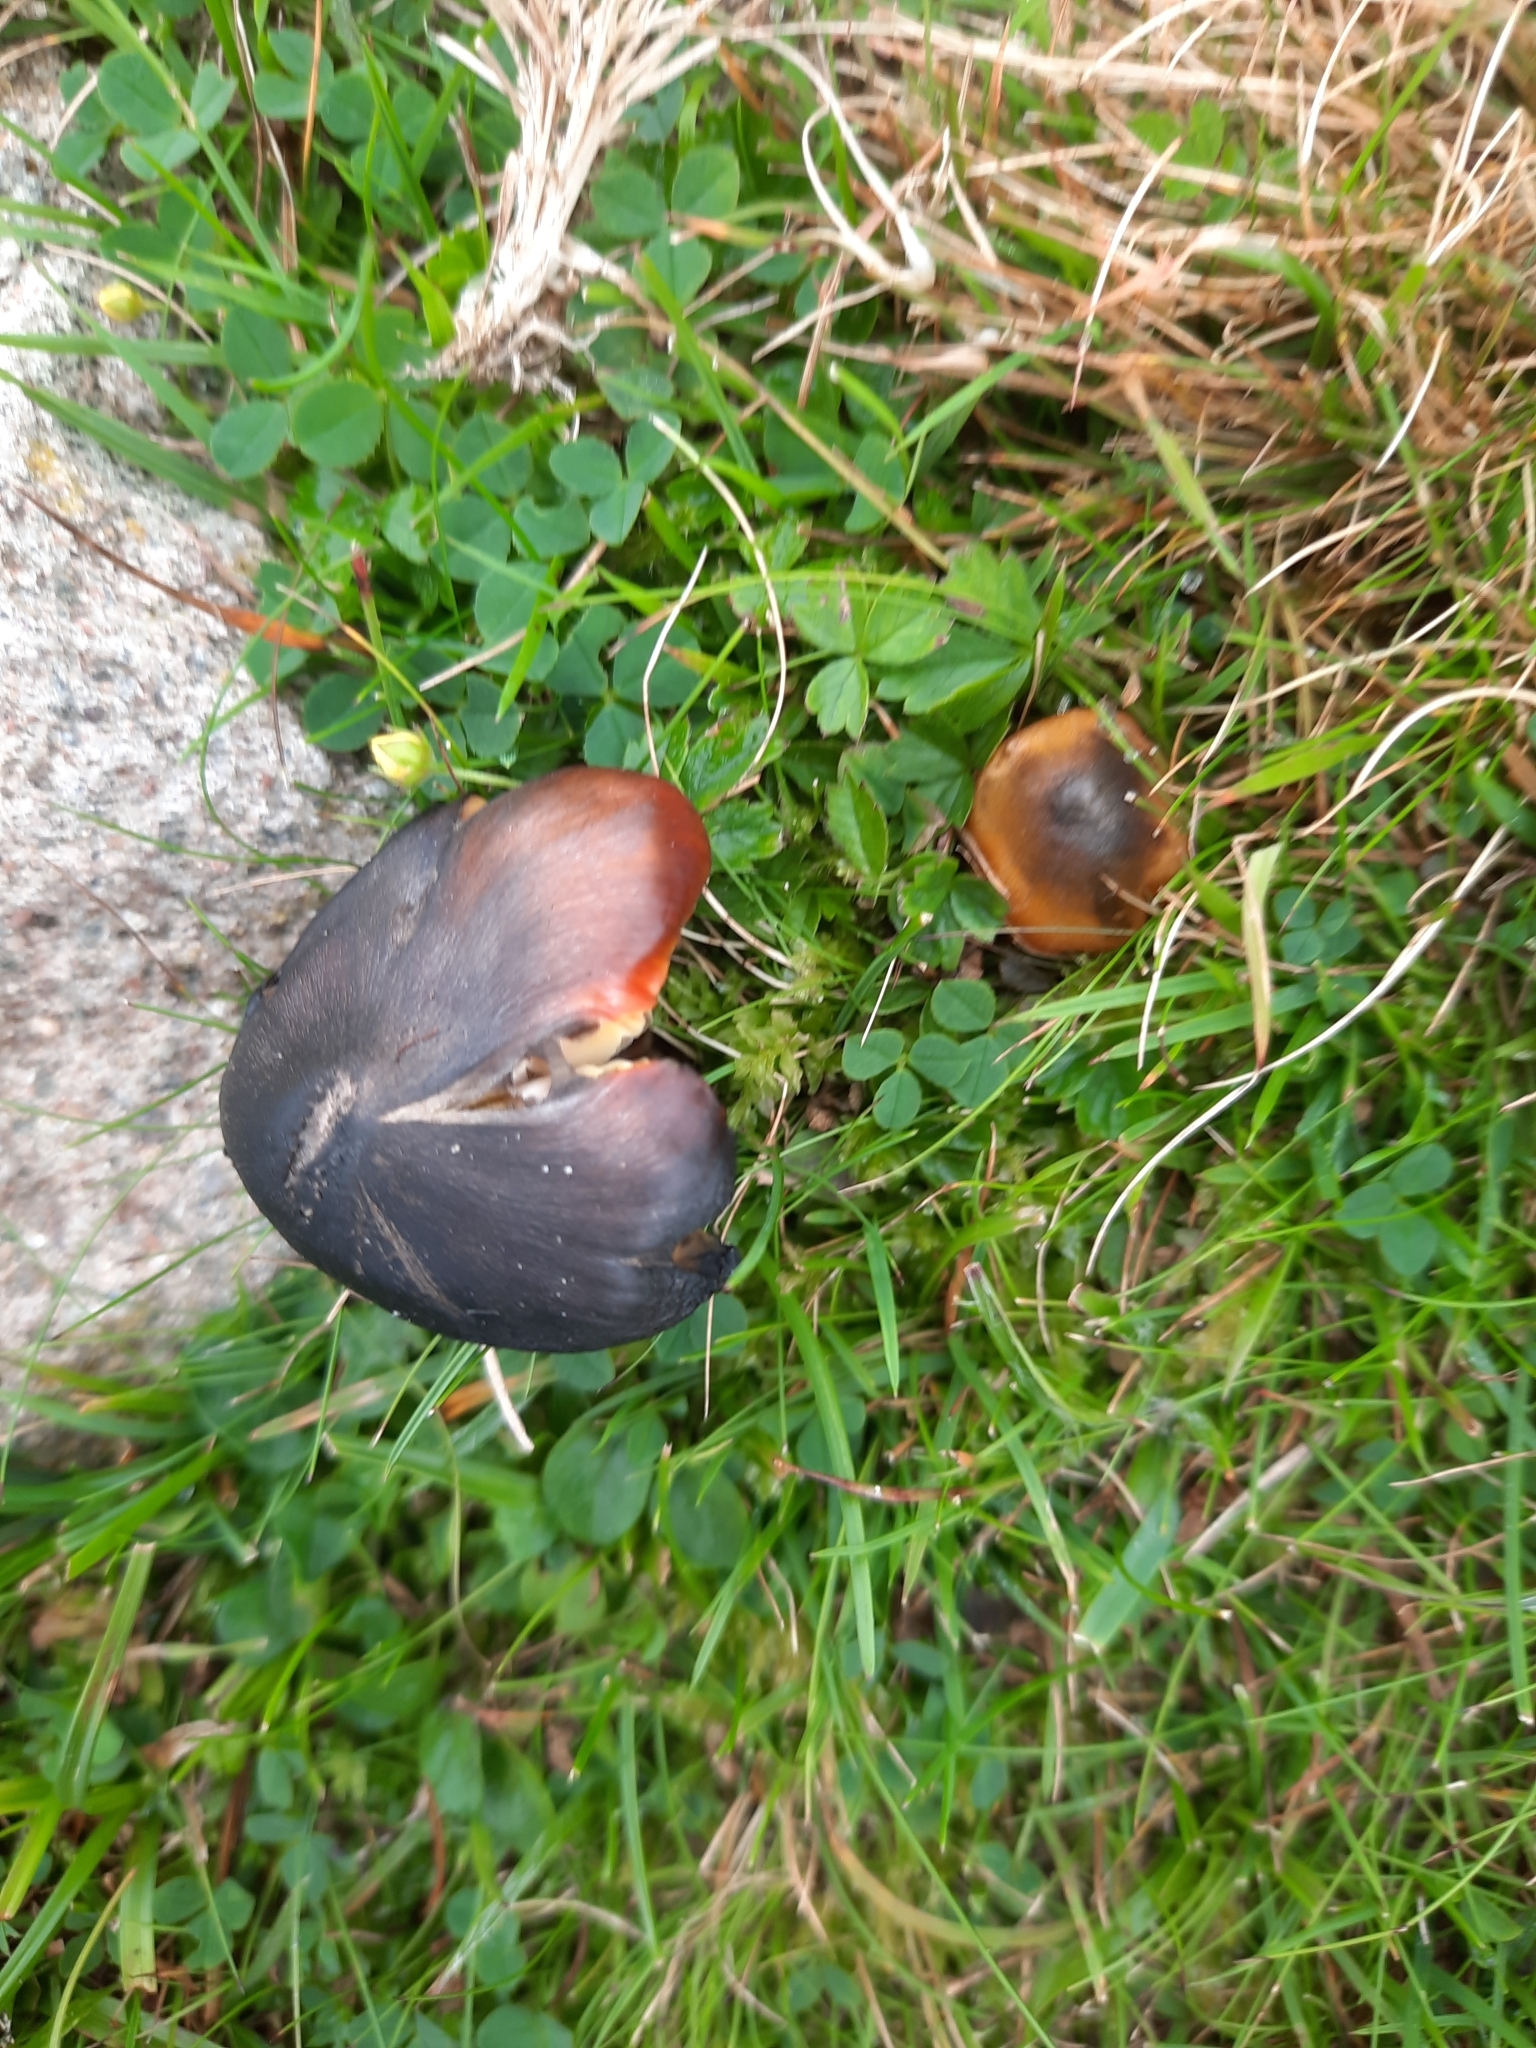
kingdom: Fungi
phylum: Basidiomycota
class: Agaricomycetes
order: Agaricales
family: Hygrophoraceae
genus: Hygrocybe
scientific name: Hygrocybe conica
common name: Blackening wax-cap
